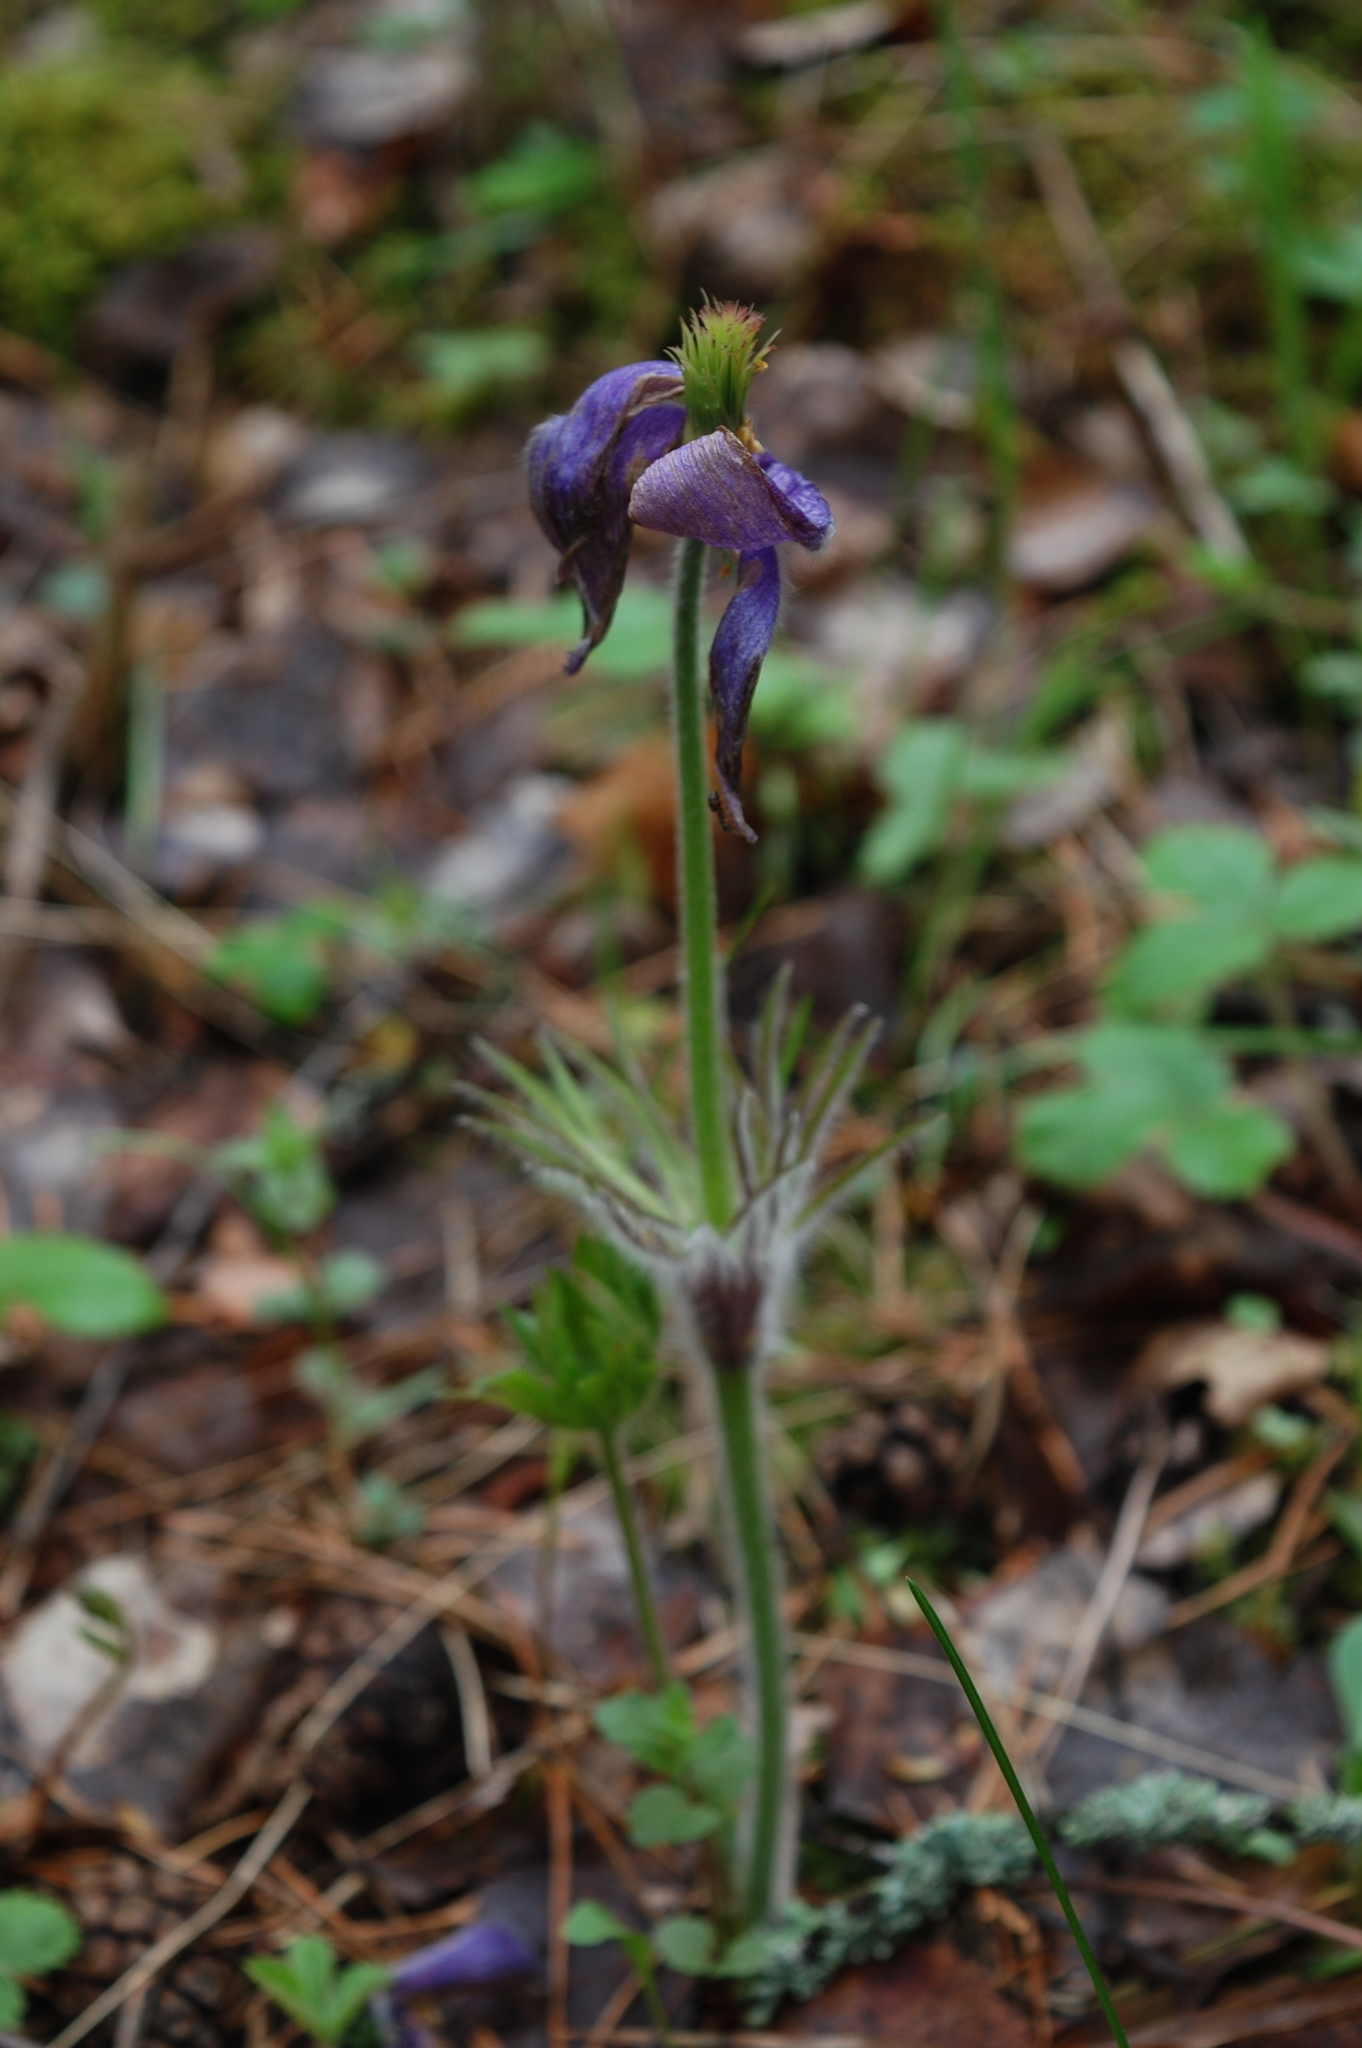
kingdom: Plantae
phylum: Tracheophyta
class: Magnoliopsida
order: Ranunculales
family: Ranunculaceae
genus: Pulsatilla
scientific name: Pulsatilla patens
